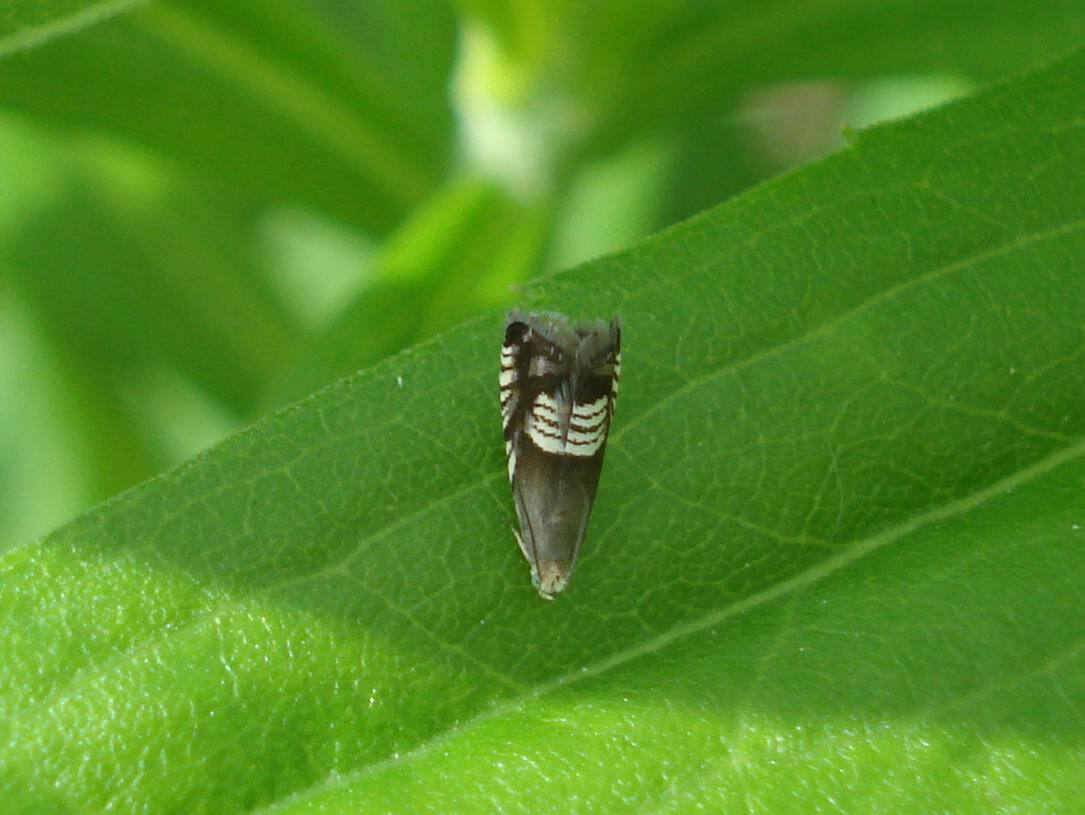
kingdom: Animalia
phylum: Arthropoda
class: Insecta
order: Lepidoptera
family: Tortricidae
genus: Grapholita
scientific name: Grapholita compositella
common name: Triple-stripe piercer
